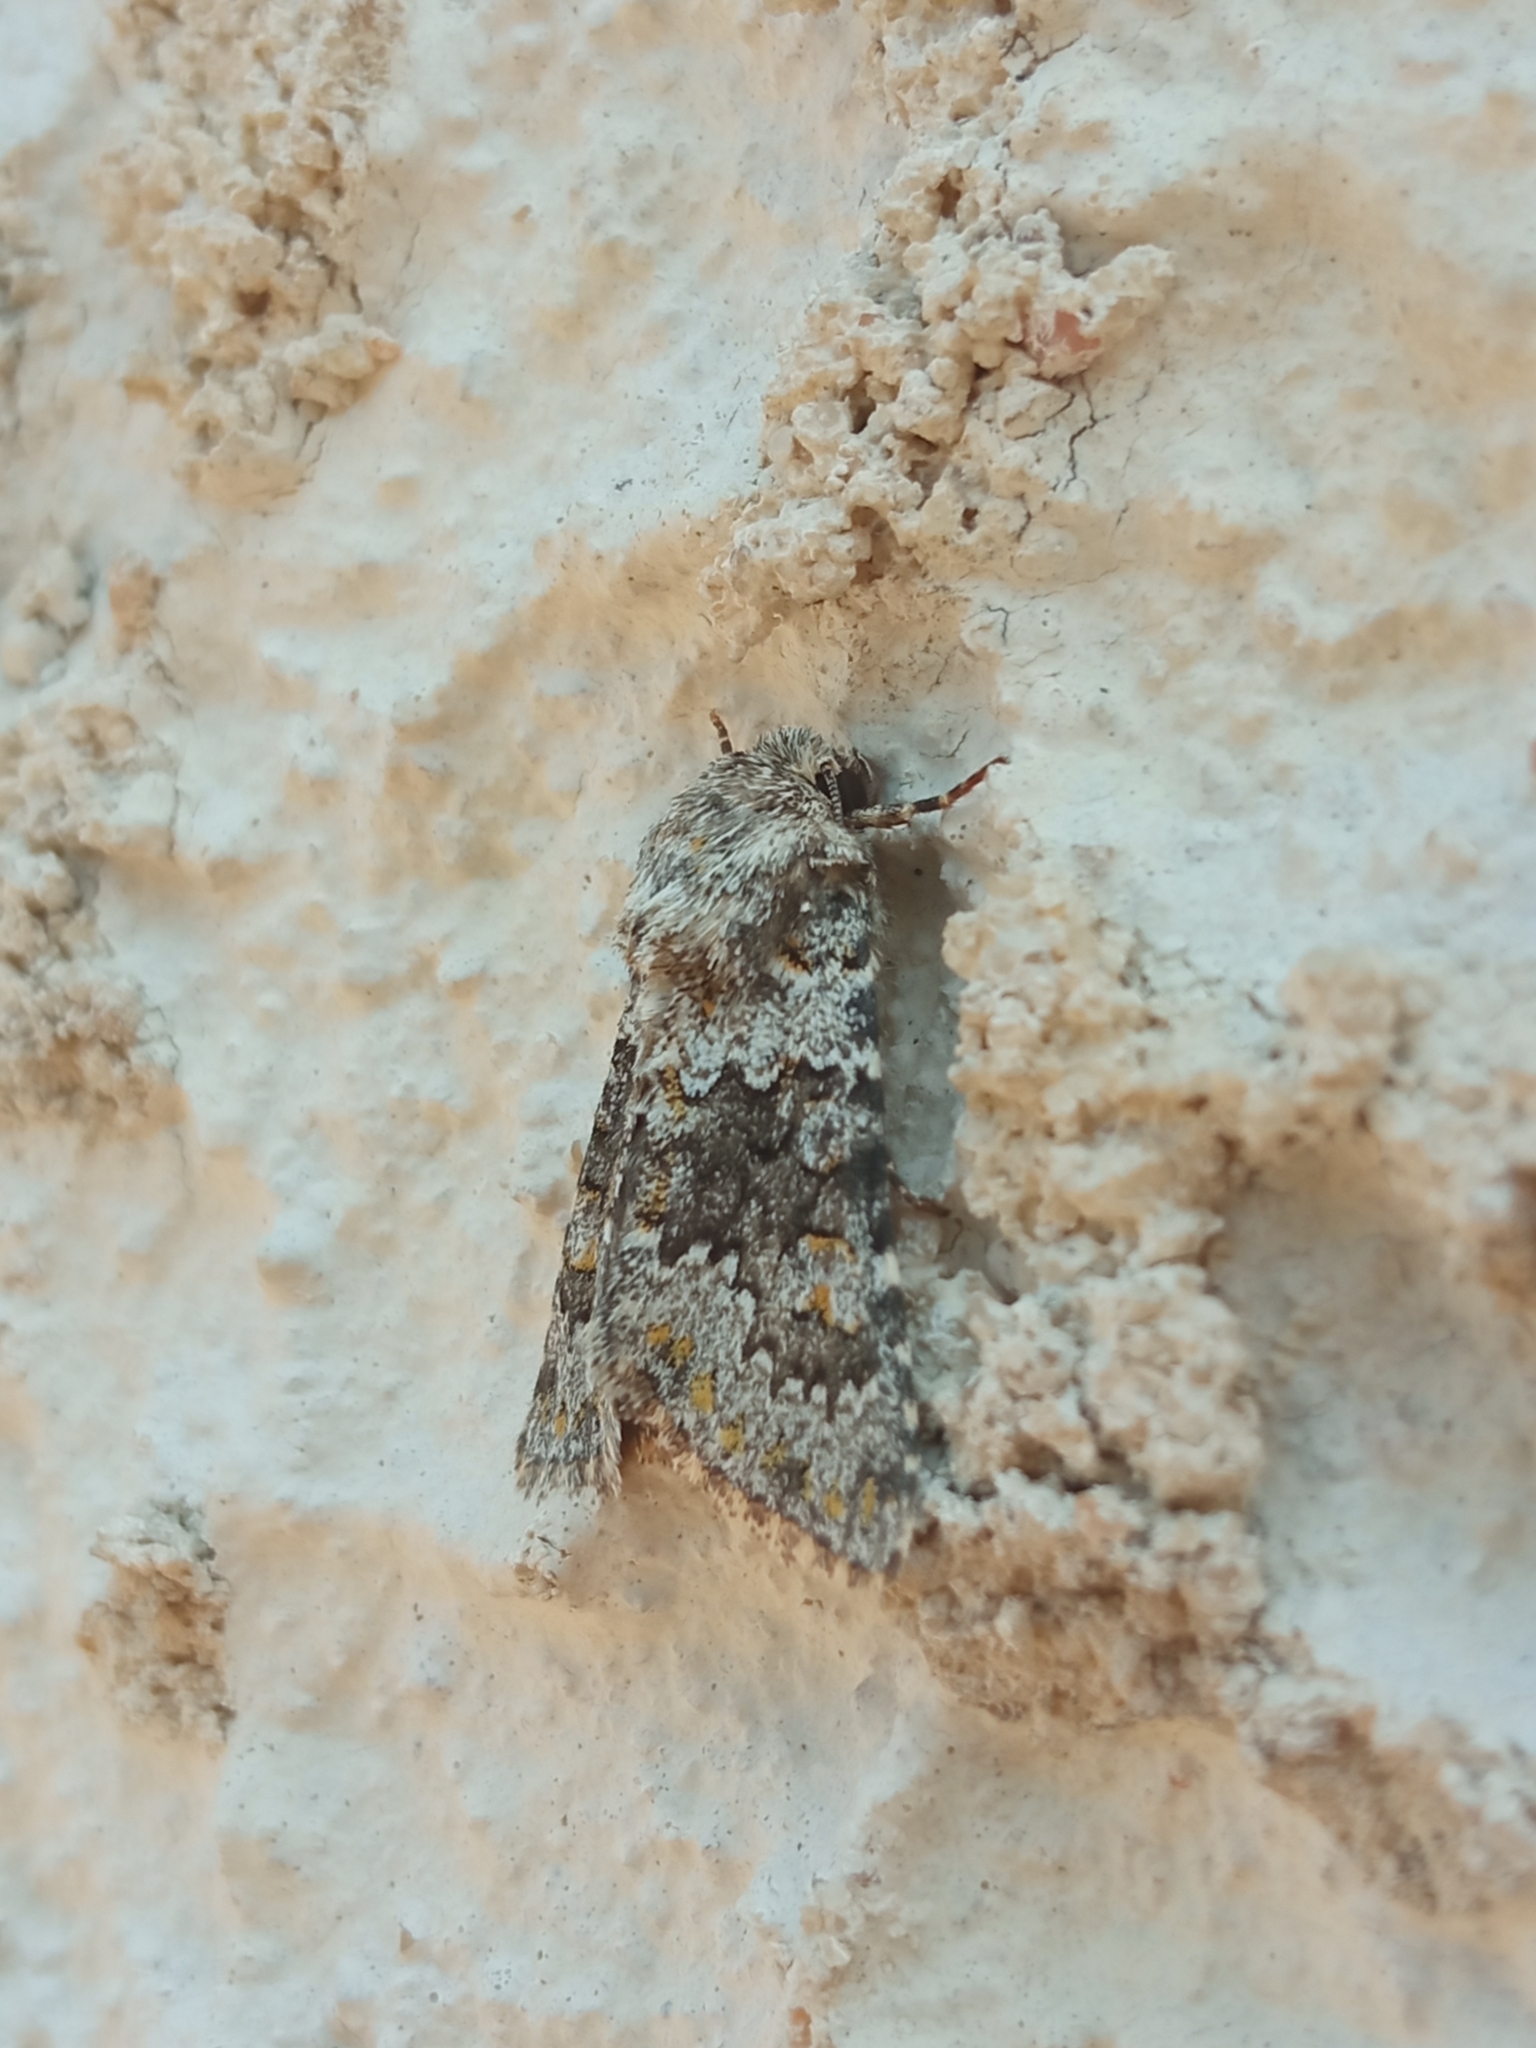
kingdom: Animalia
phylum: Arthropoda
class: Insecta
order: Lepidoptera
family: Noctuidae
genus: Hecatera
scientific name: Hecatera dysodea
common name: Small ranunculus
